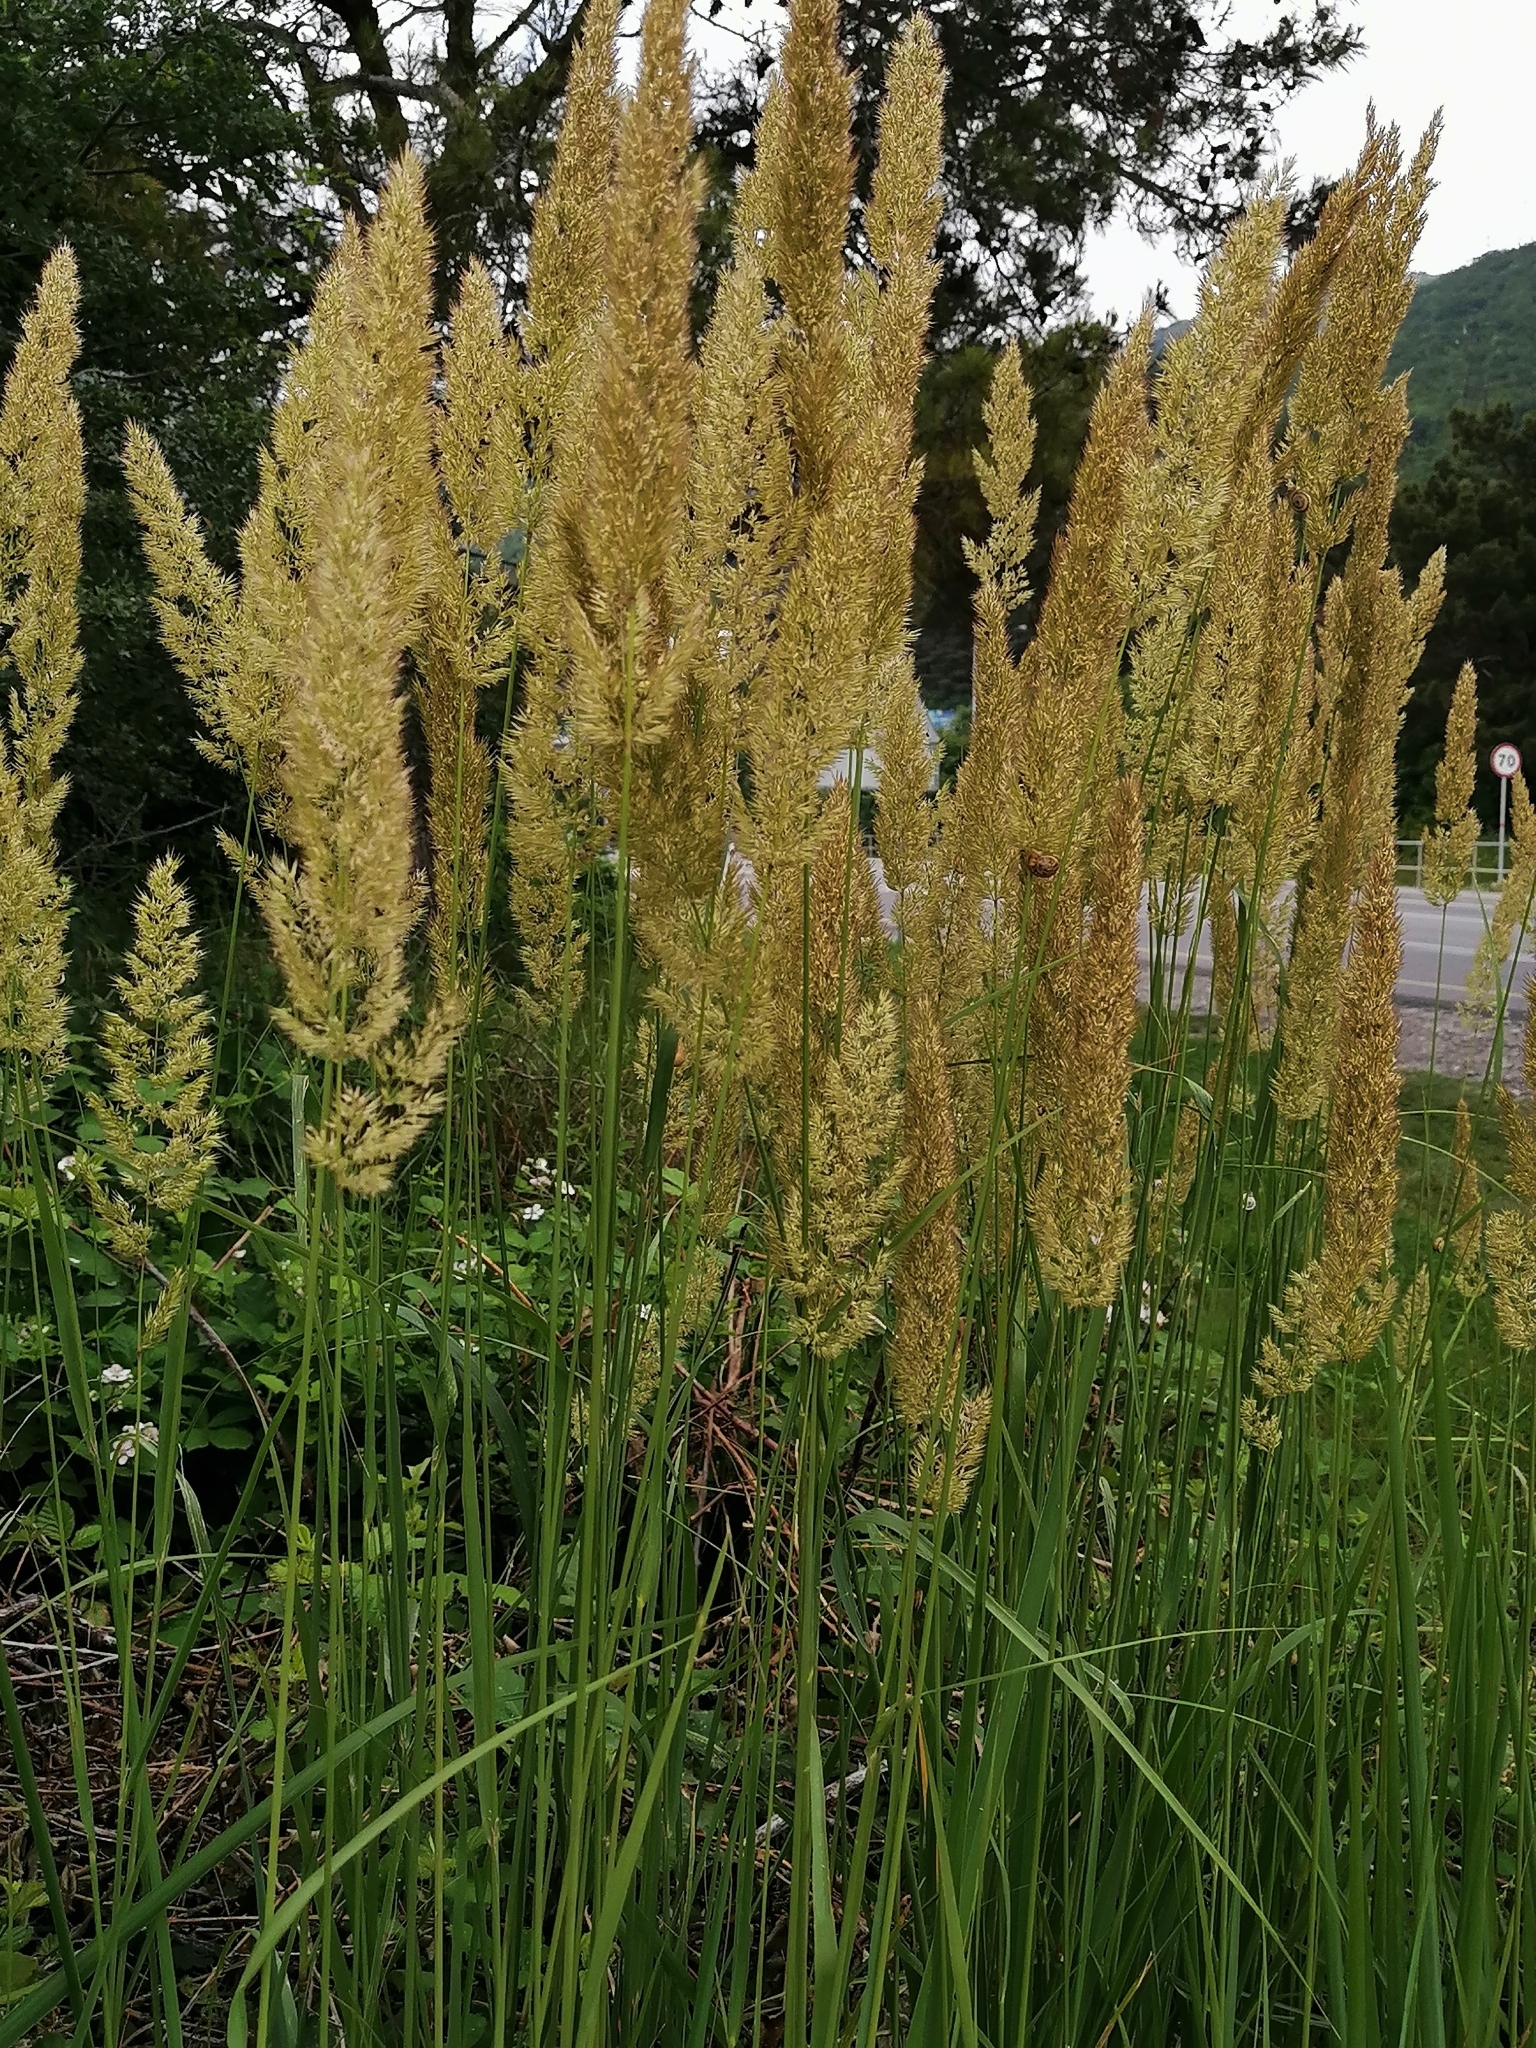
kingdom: Plantae
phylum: Tracheophyta
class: Liliopsida
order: Poales
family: Poaceae
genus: Calamagrostis
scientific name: Calamagrostis epigejos
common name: Wood small-reed
